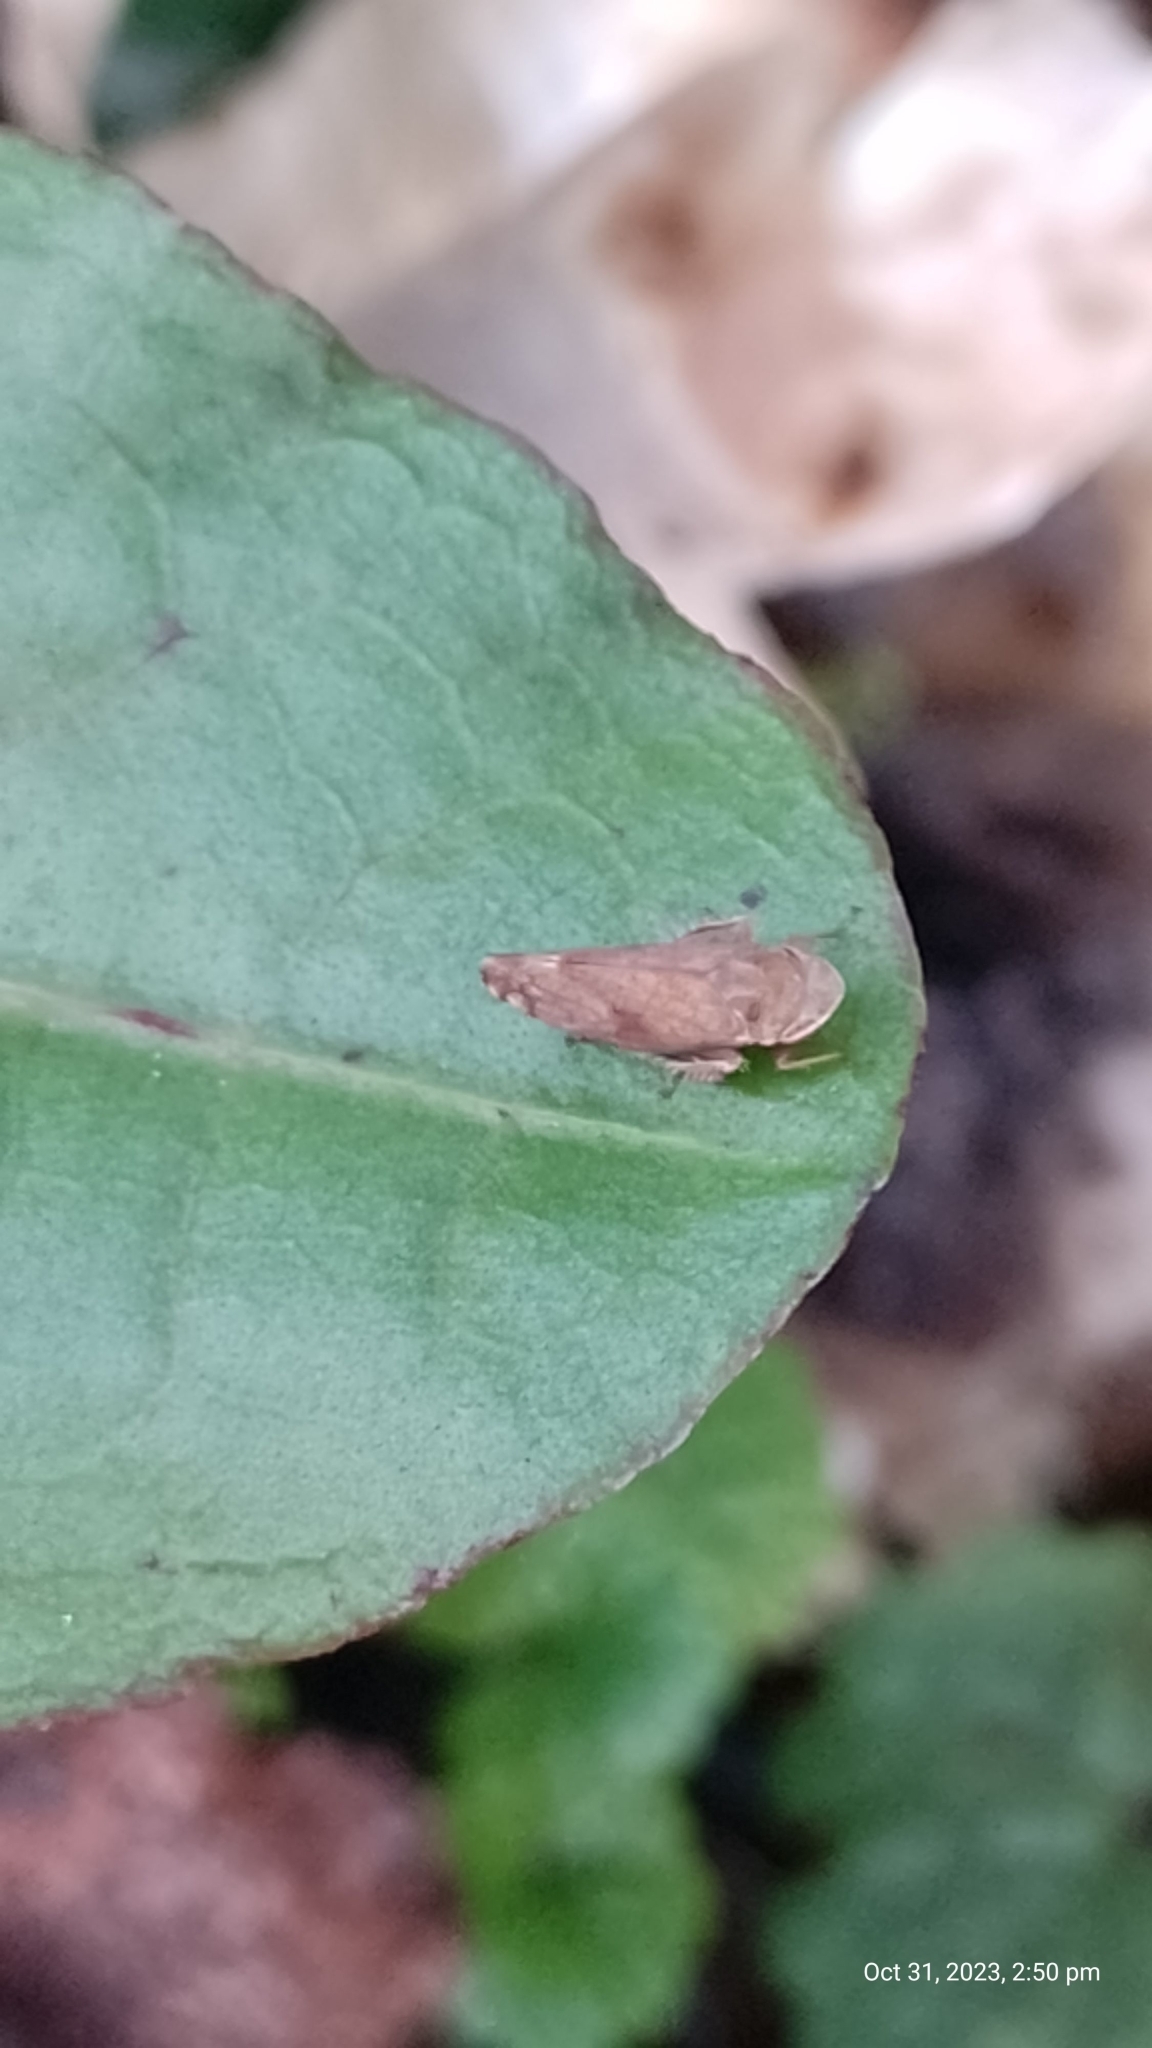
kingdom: Animalia
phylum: Arthropoda
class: Insecta
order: Hemiptera
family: Cicadellidae
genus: Fieberiella
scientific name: Fieberiella florii
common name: Flor’s leafhopper
